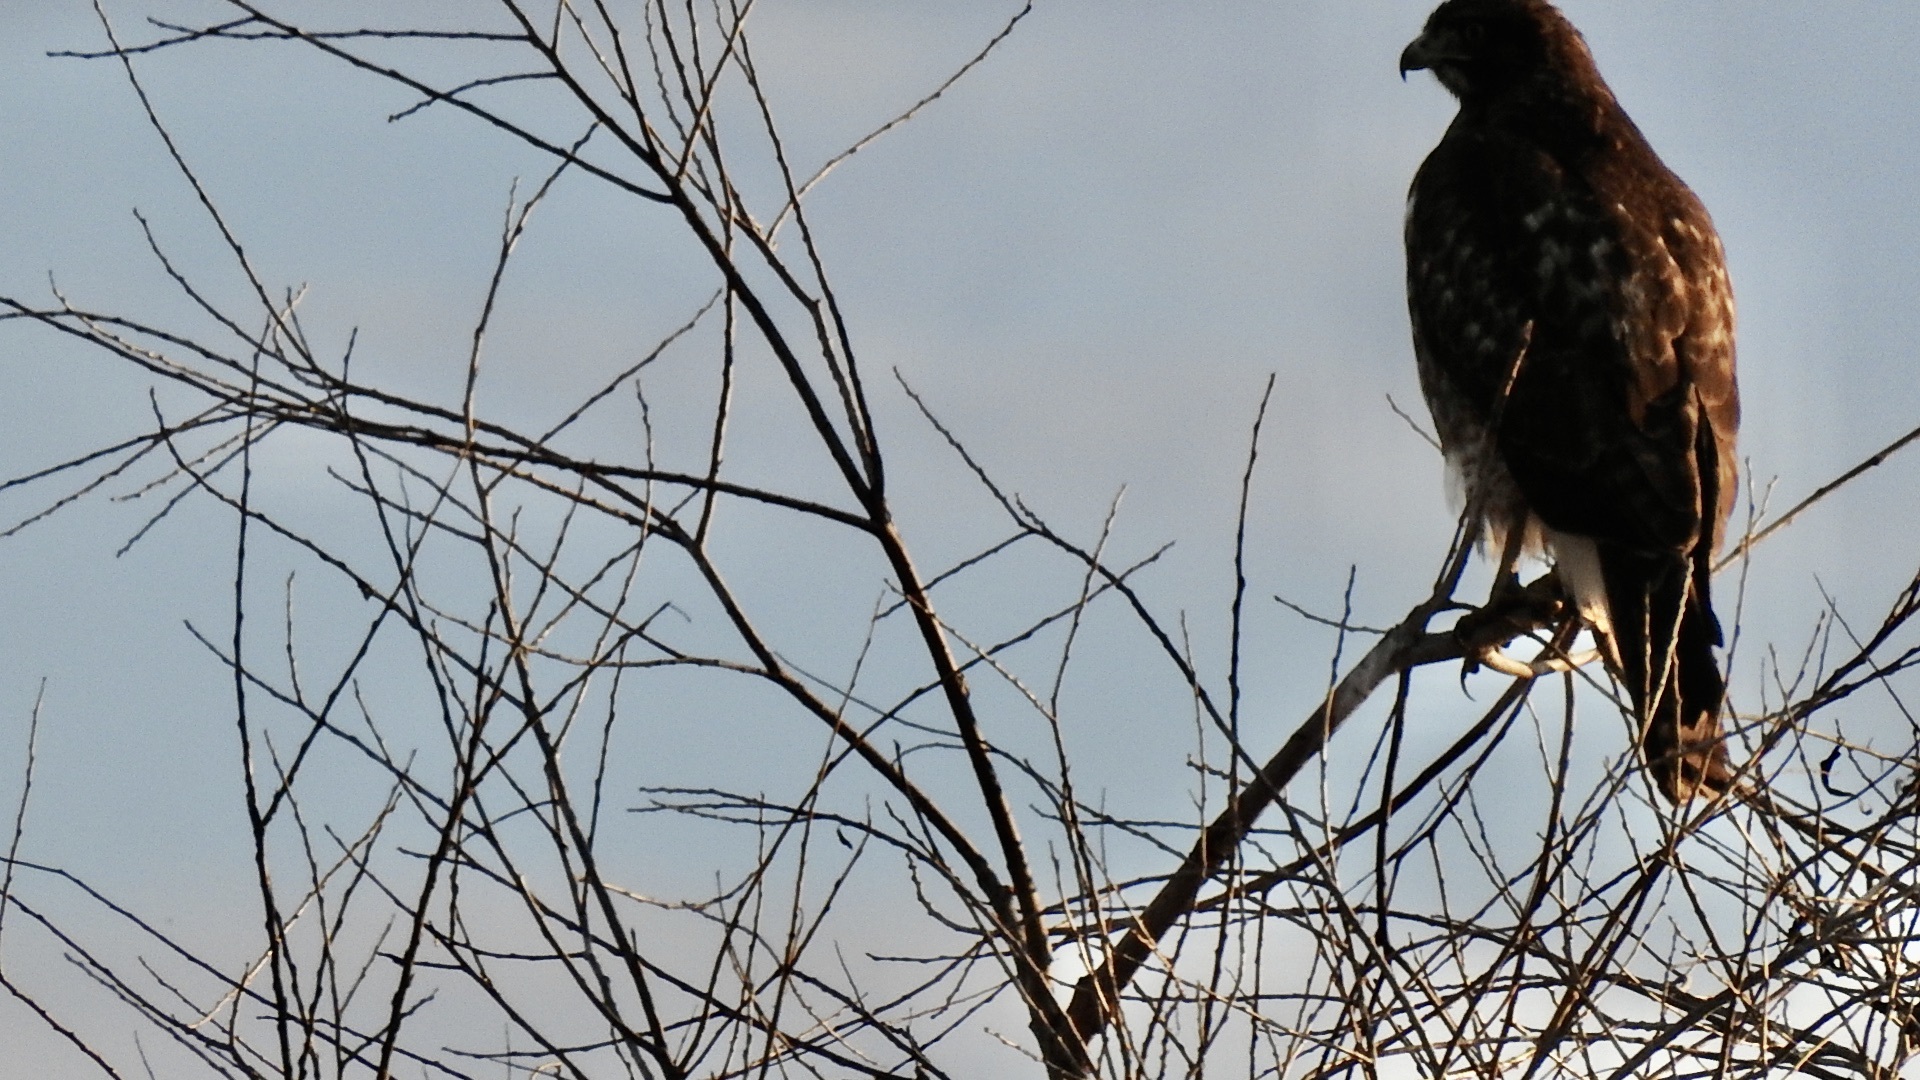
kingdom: Animalia
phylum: Chordata
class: Aves
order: Accipitriformes
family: Accipitridae
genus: Buteo
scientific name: Buteo jamaicensis
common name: Red-tailed hawk
